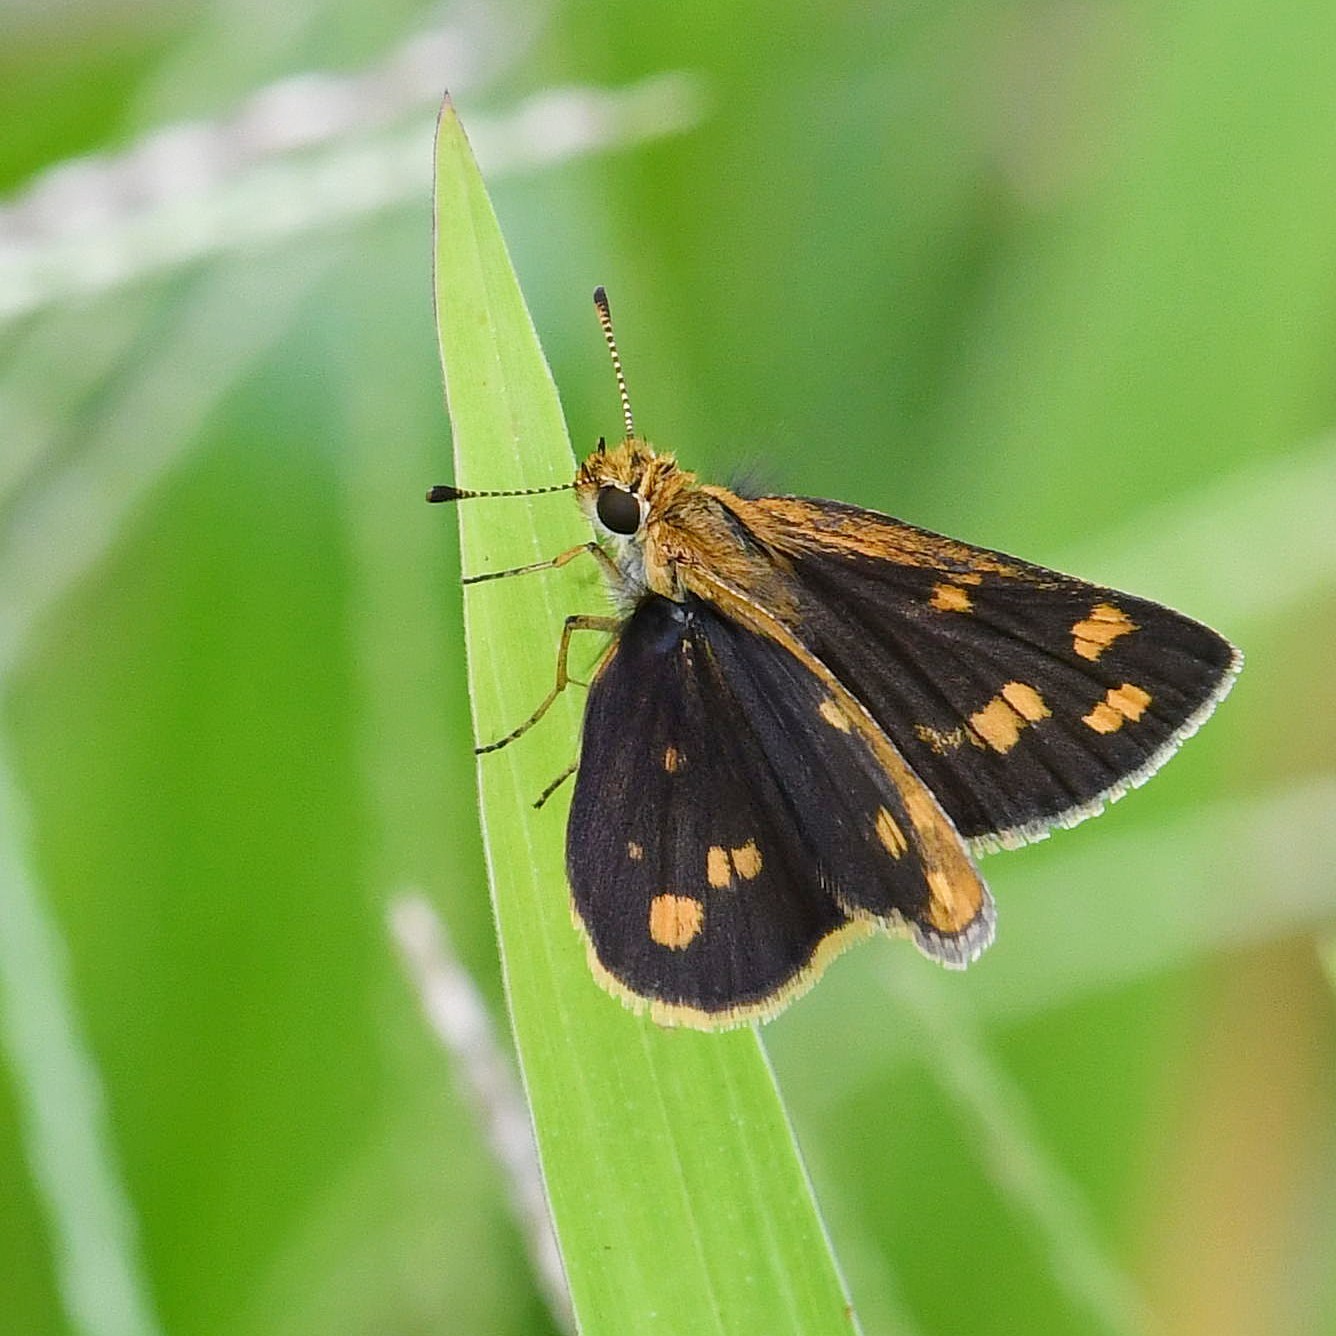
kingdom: Animalia
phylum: Arthropoda
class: Insecta
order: Lepidoptera
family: Hesperiidae
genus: Taractrocera
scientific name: Taractrocera ceramas
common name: Tamil grass dart
